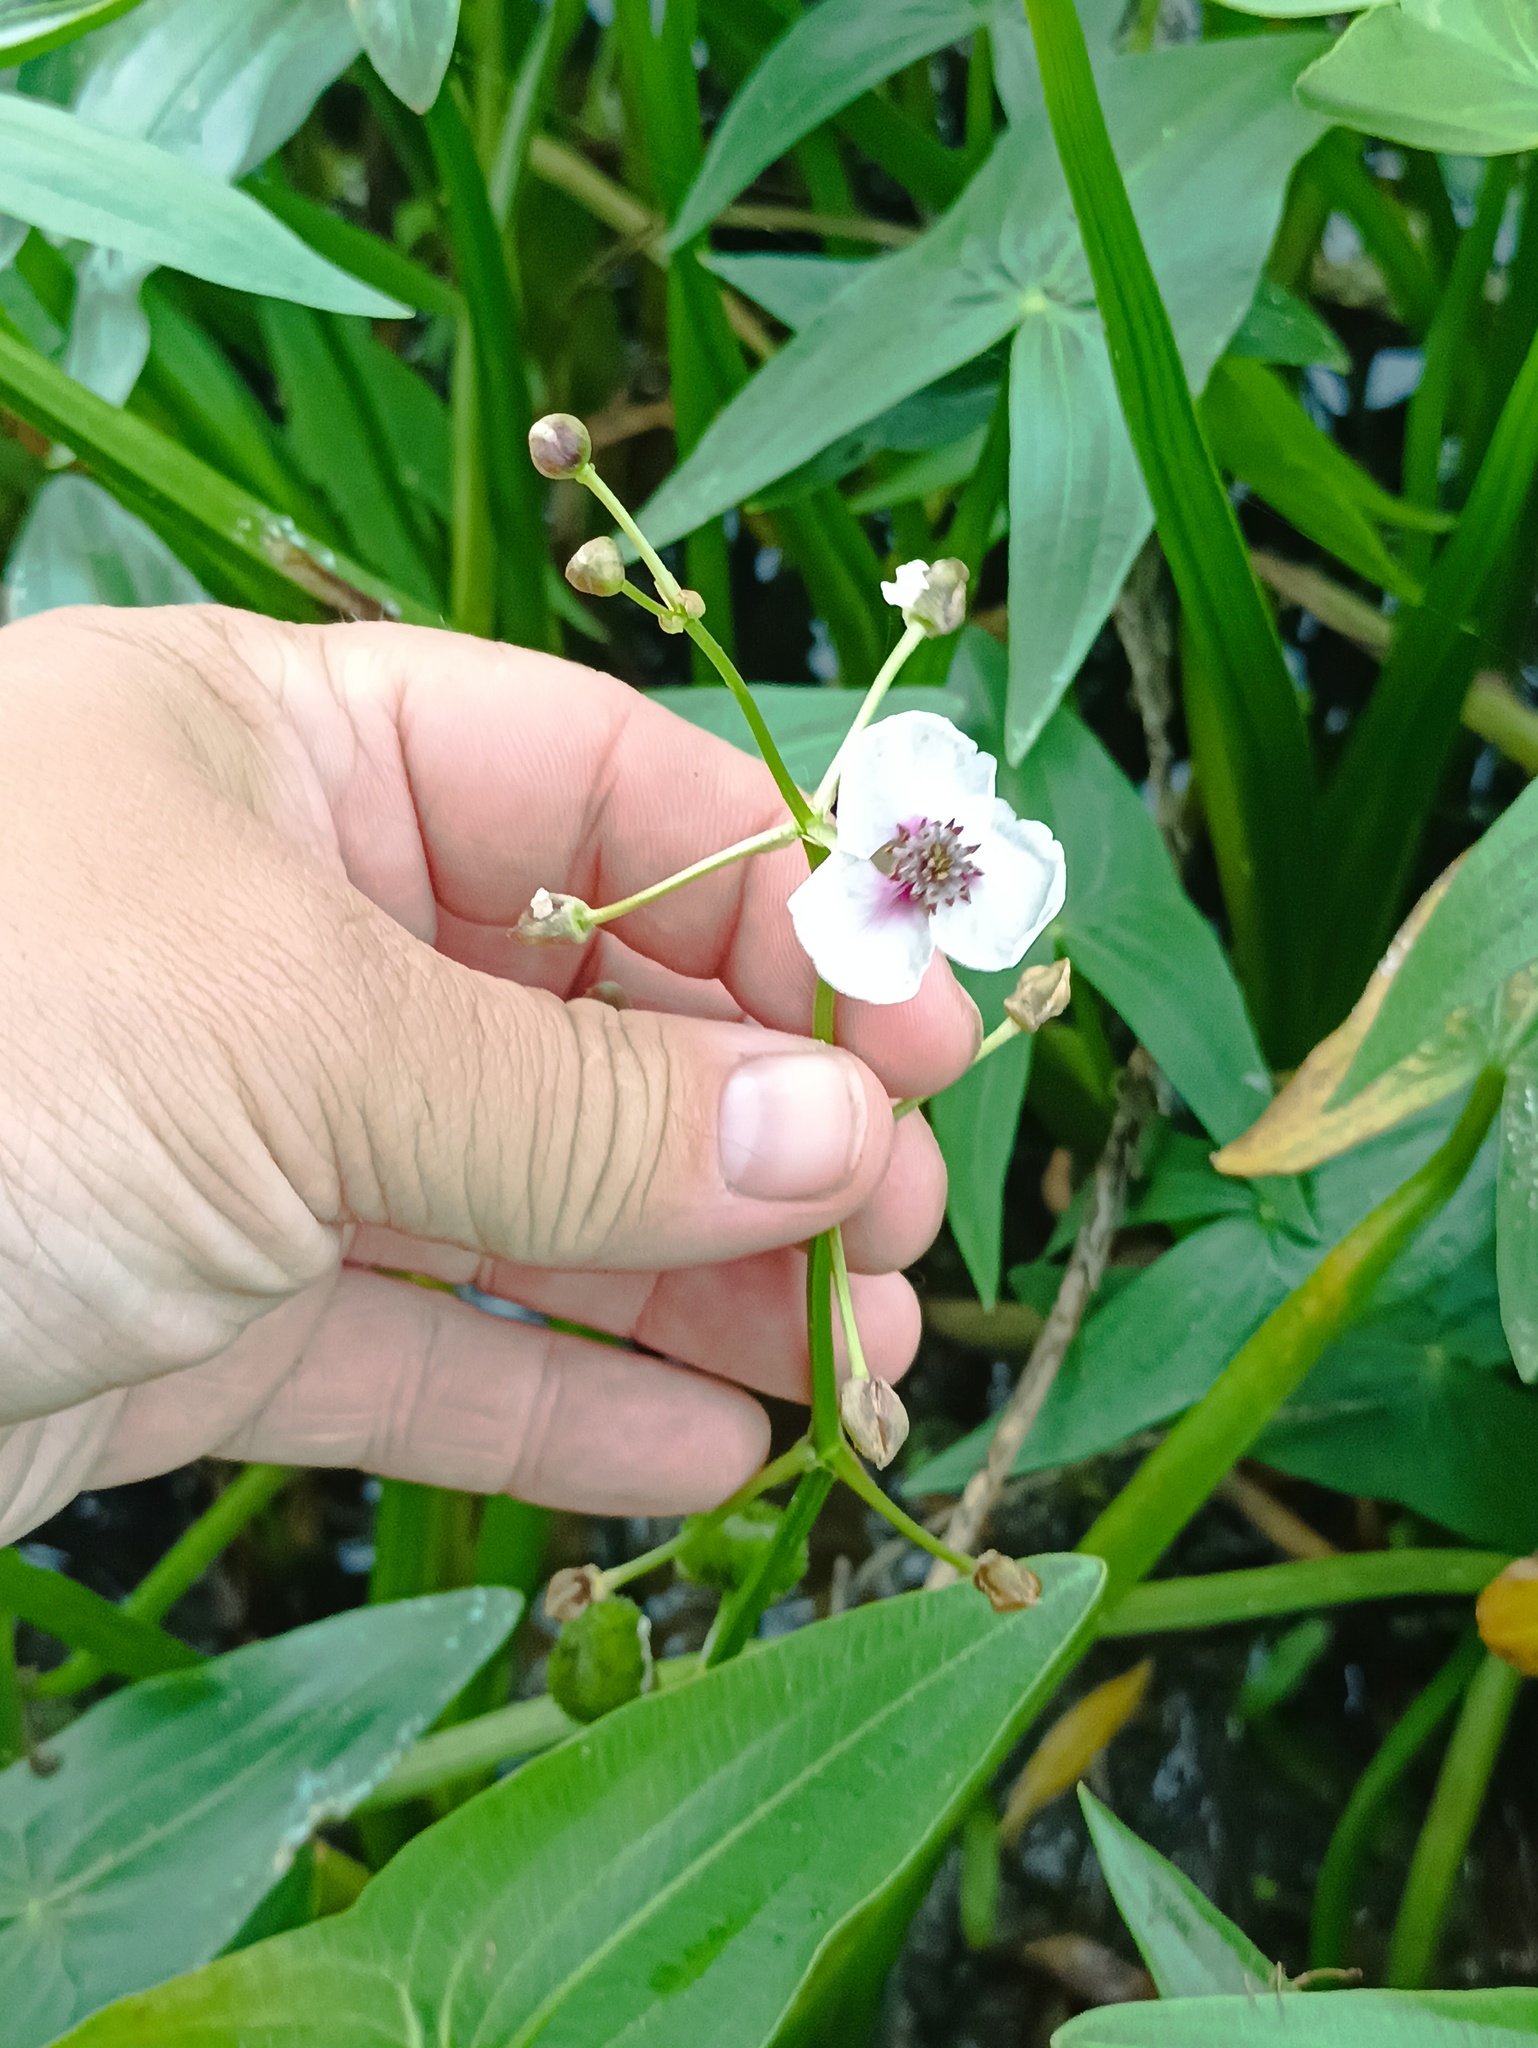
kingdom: Plantae
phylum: Tracheophyta
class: Liliopsida
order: Alismatales
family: Alismataceae
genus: Sagittaria
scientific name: Sagittaria sagittifolia
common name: Arrowhead
